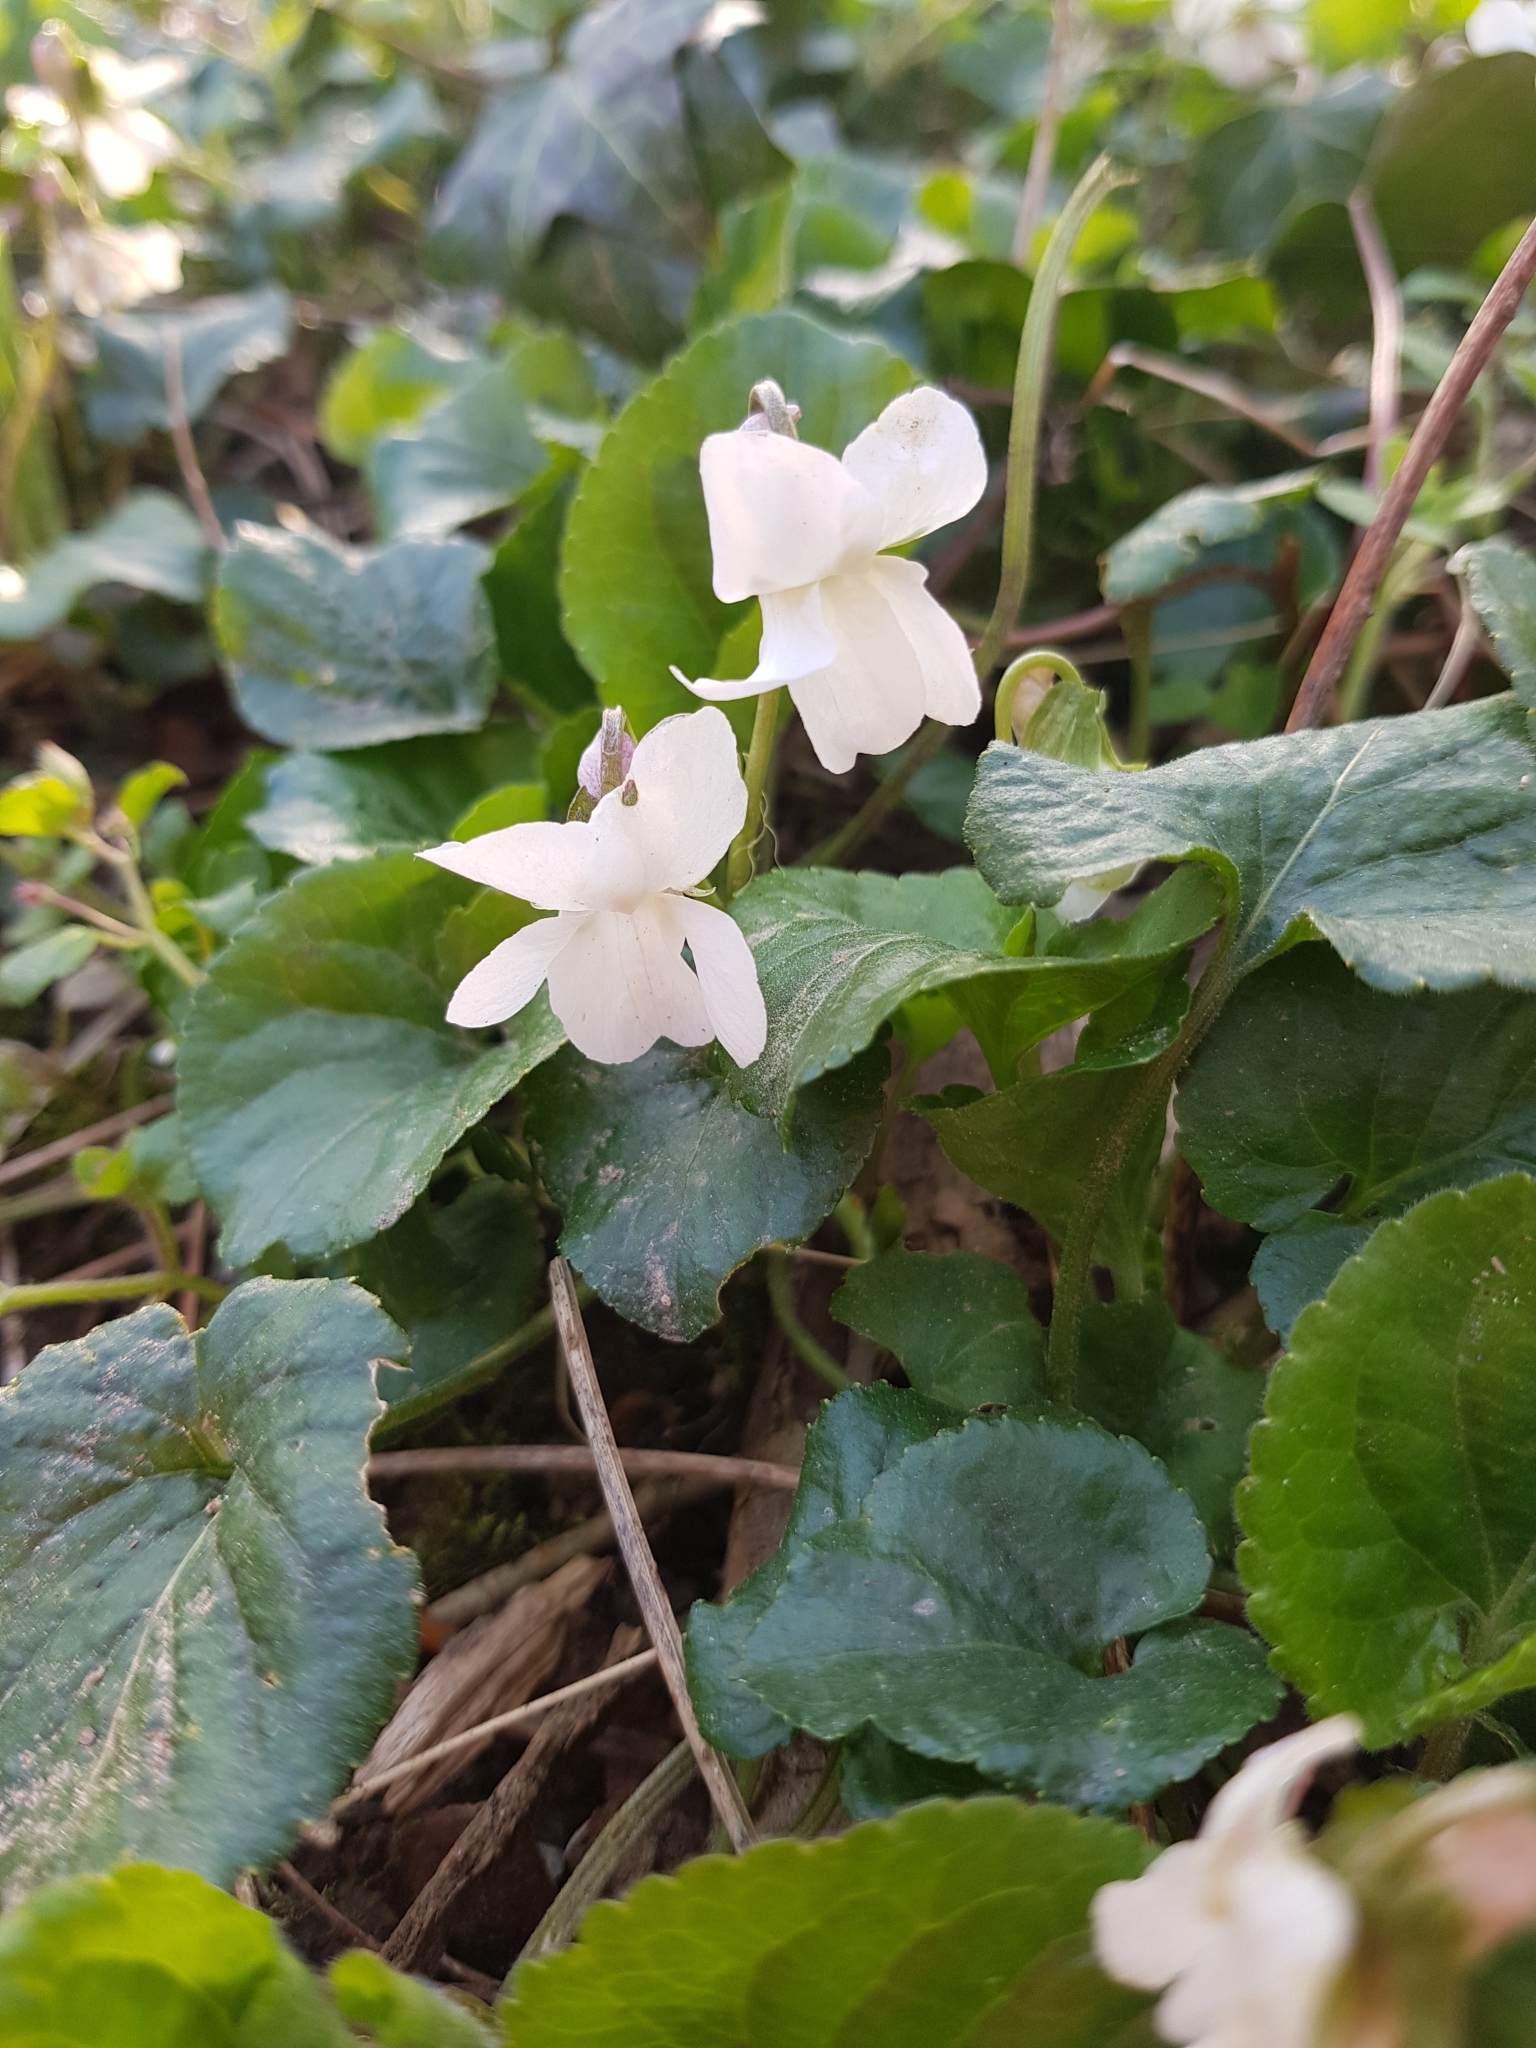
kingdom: Plantae
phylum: Tracheophyta
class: Magnoliopsida
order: Malpighiales
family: Violaceae
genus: Viola
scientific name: Viola alba
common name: White violet
